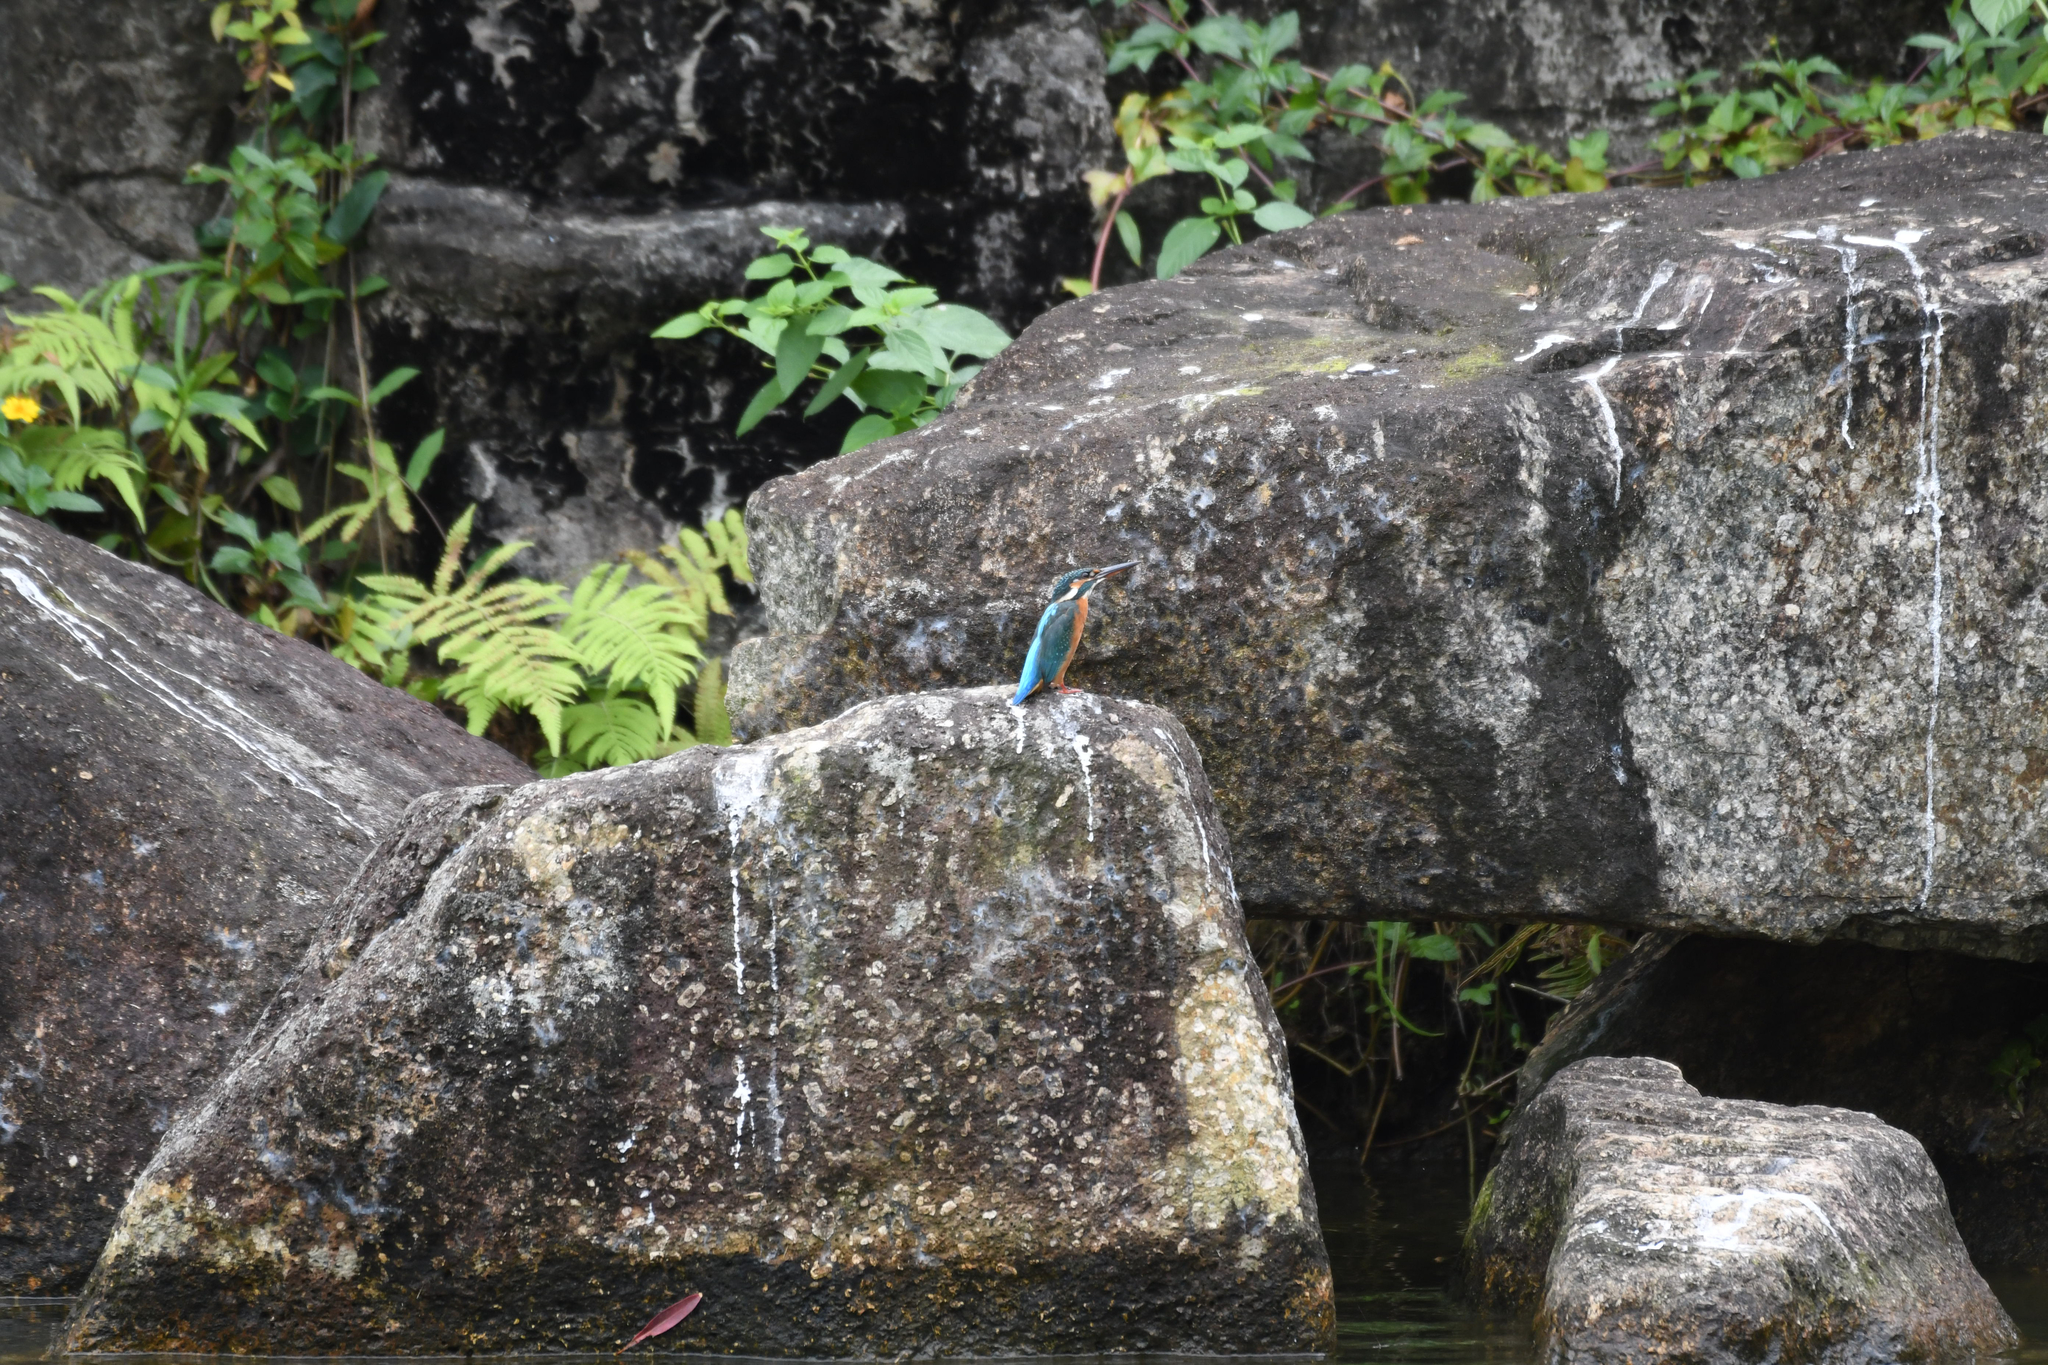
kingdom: Animalia
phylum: Chordata
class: Aves
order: Coraciiformes
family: Alcedinidae
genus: Alcedo
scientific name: Alcedo atthis
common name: Common kingfisher
